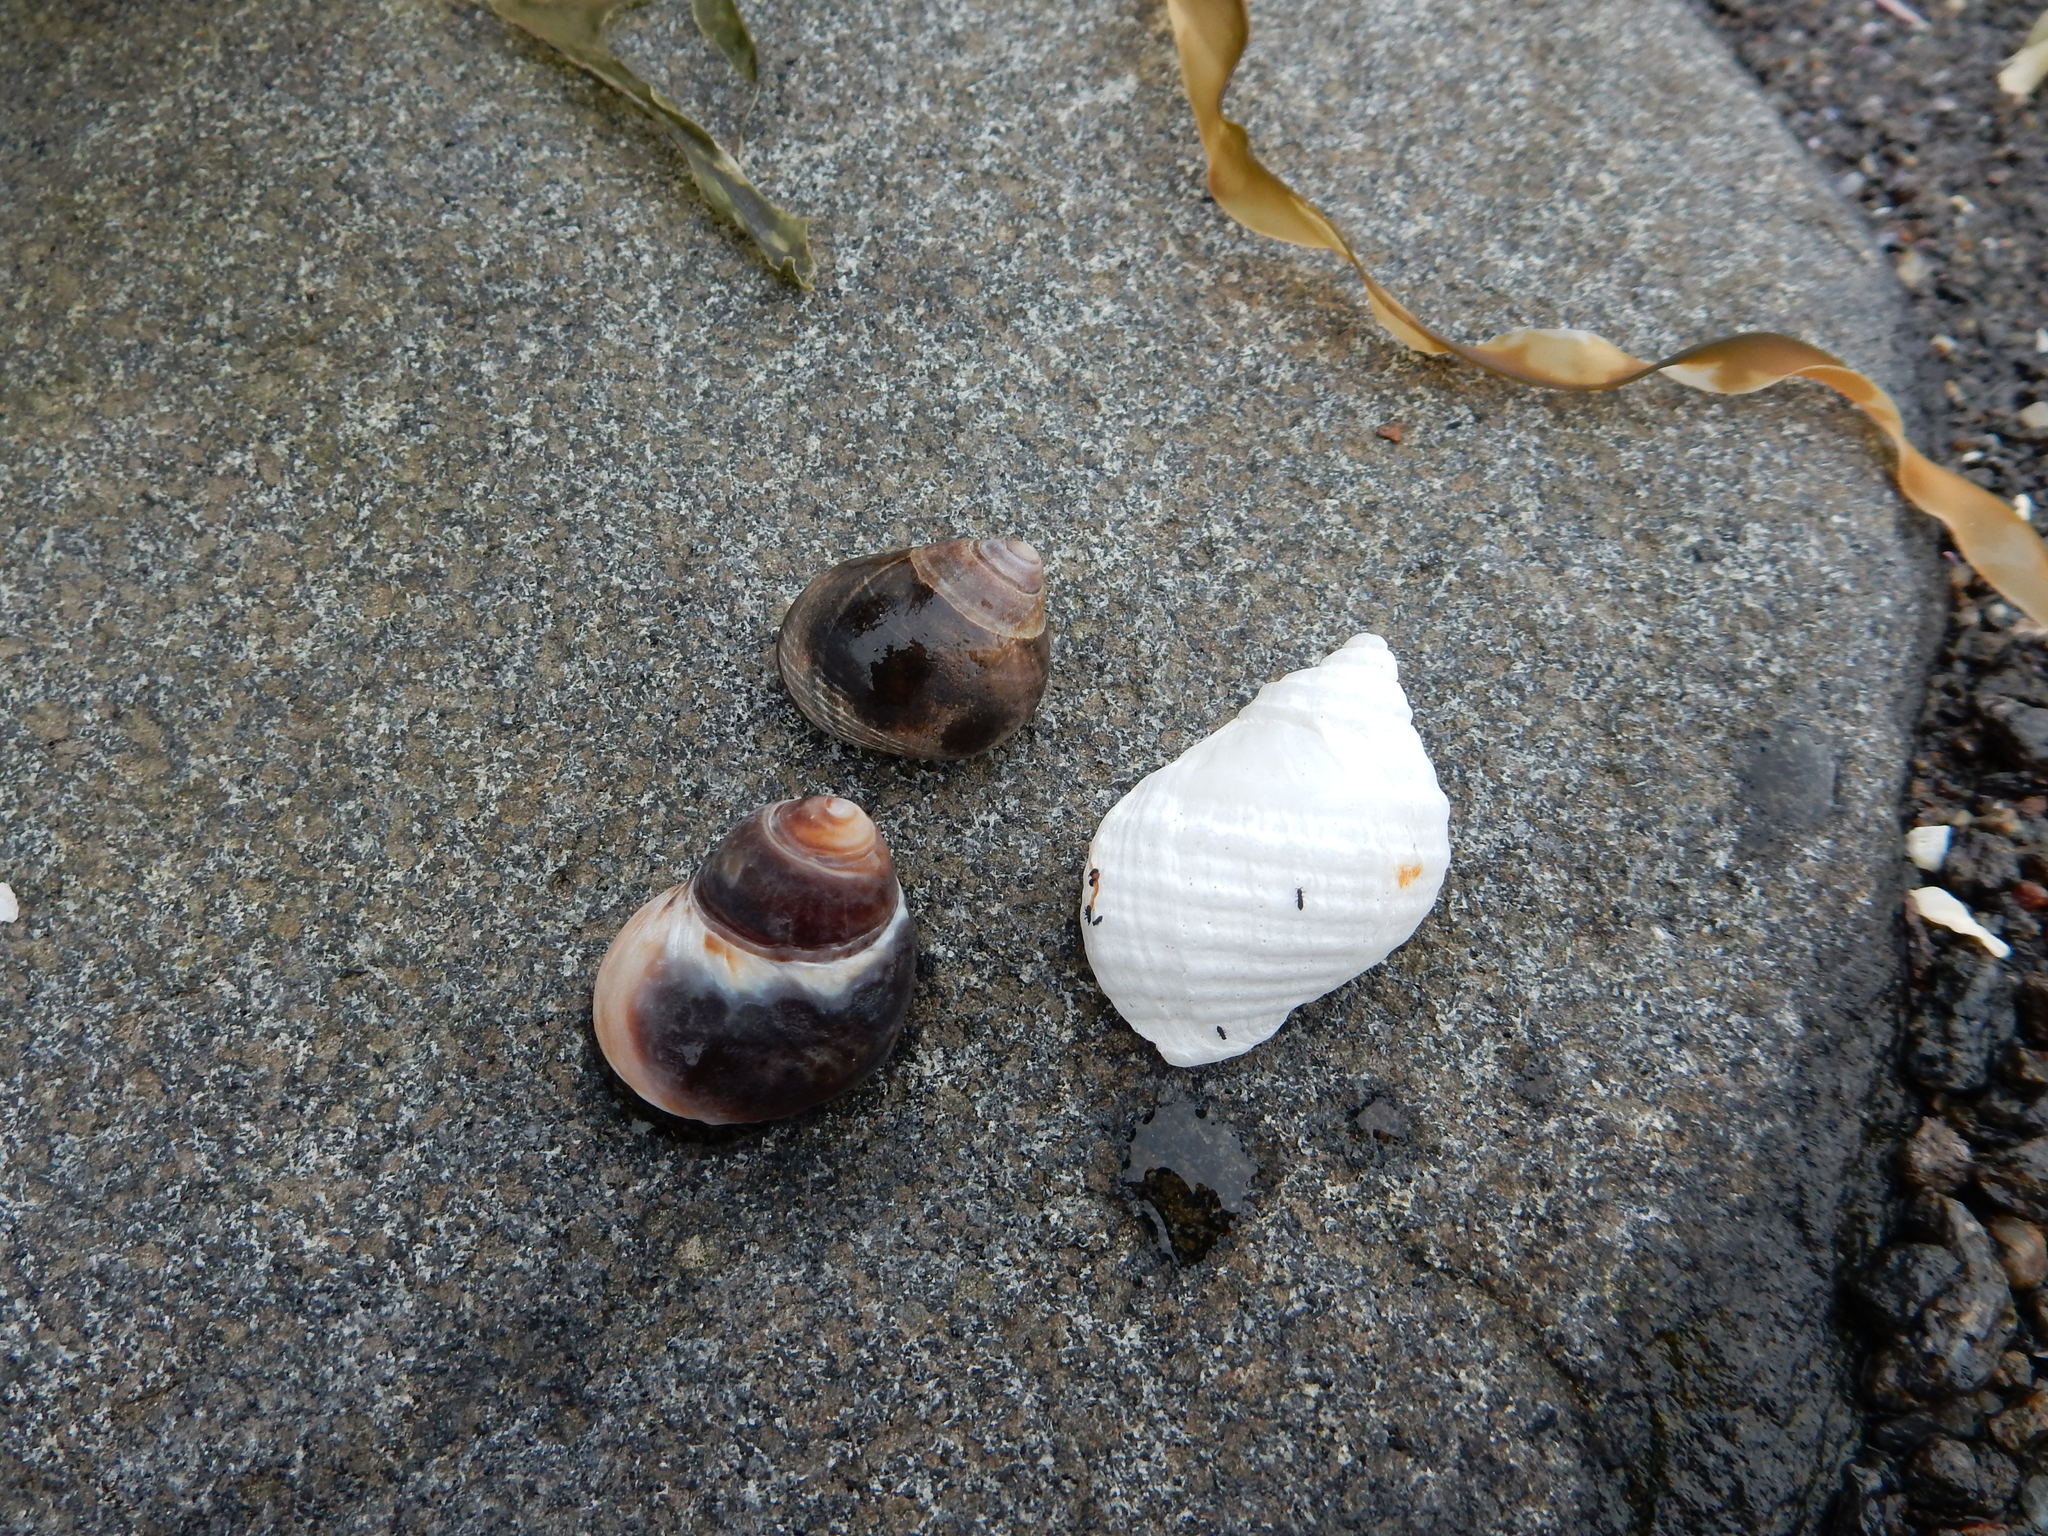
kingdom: Animalia
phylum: Mollusca
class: Gastropoda
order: Neogastropoda
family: Muricidae
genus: Nucella
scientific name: Nucella lapillus
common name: Dog whelk
